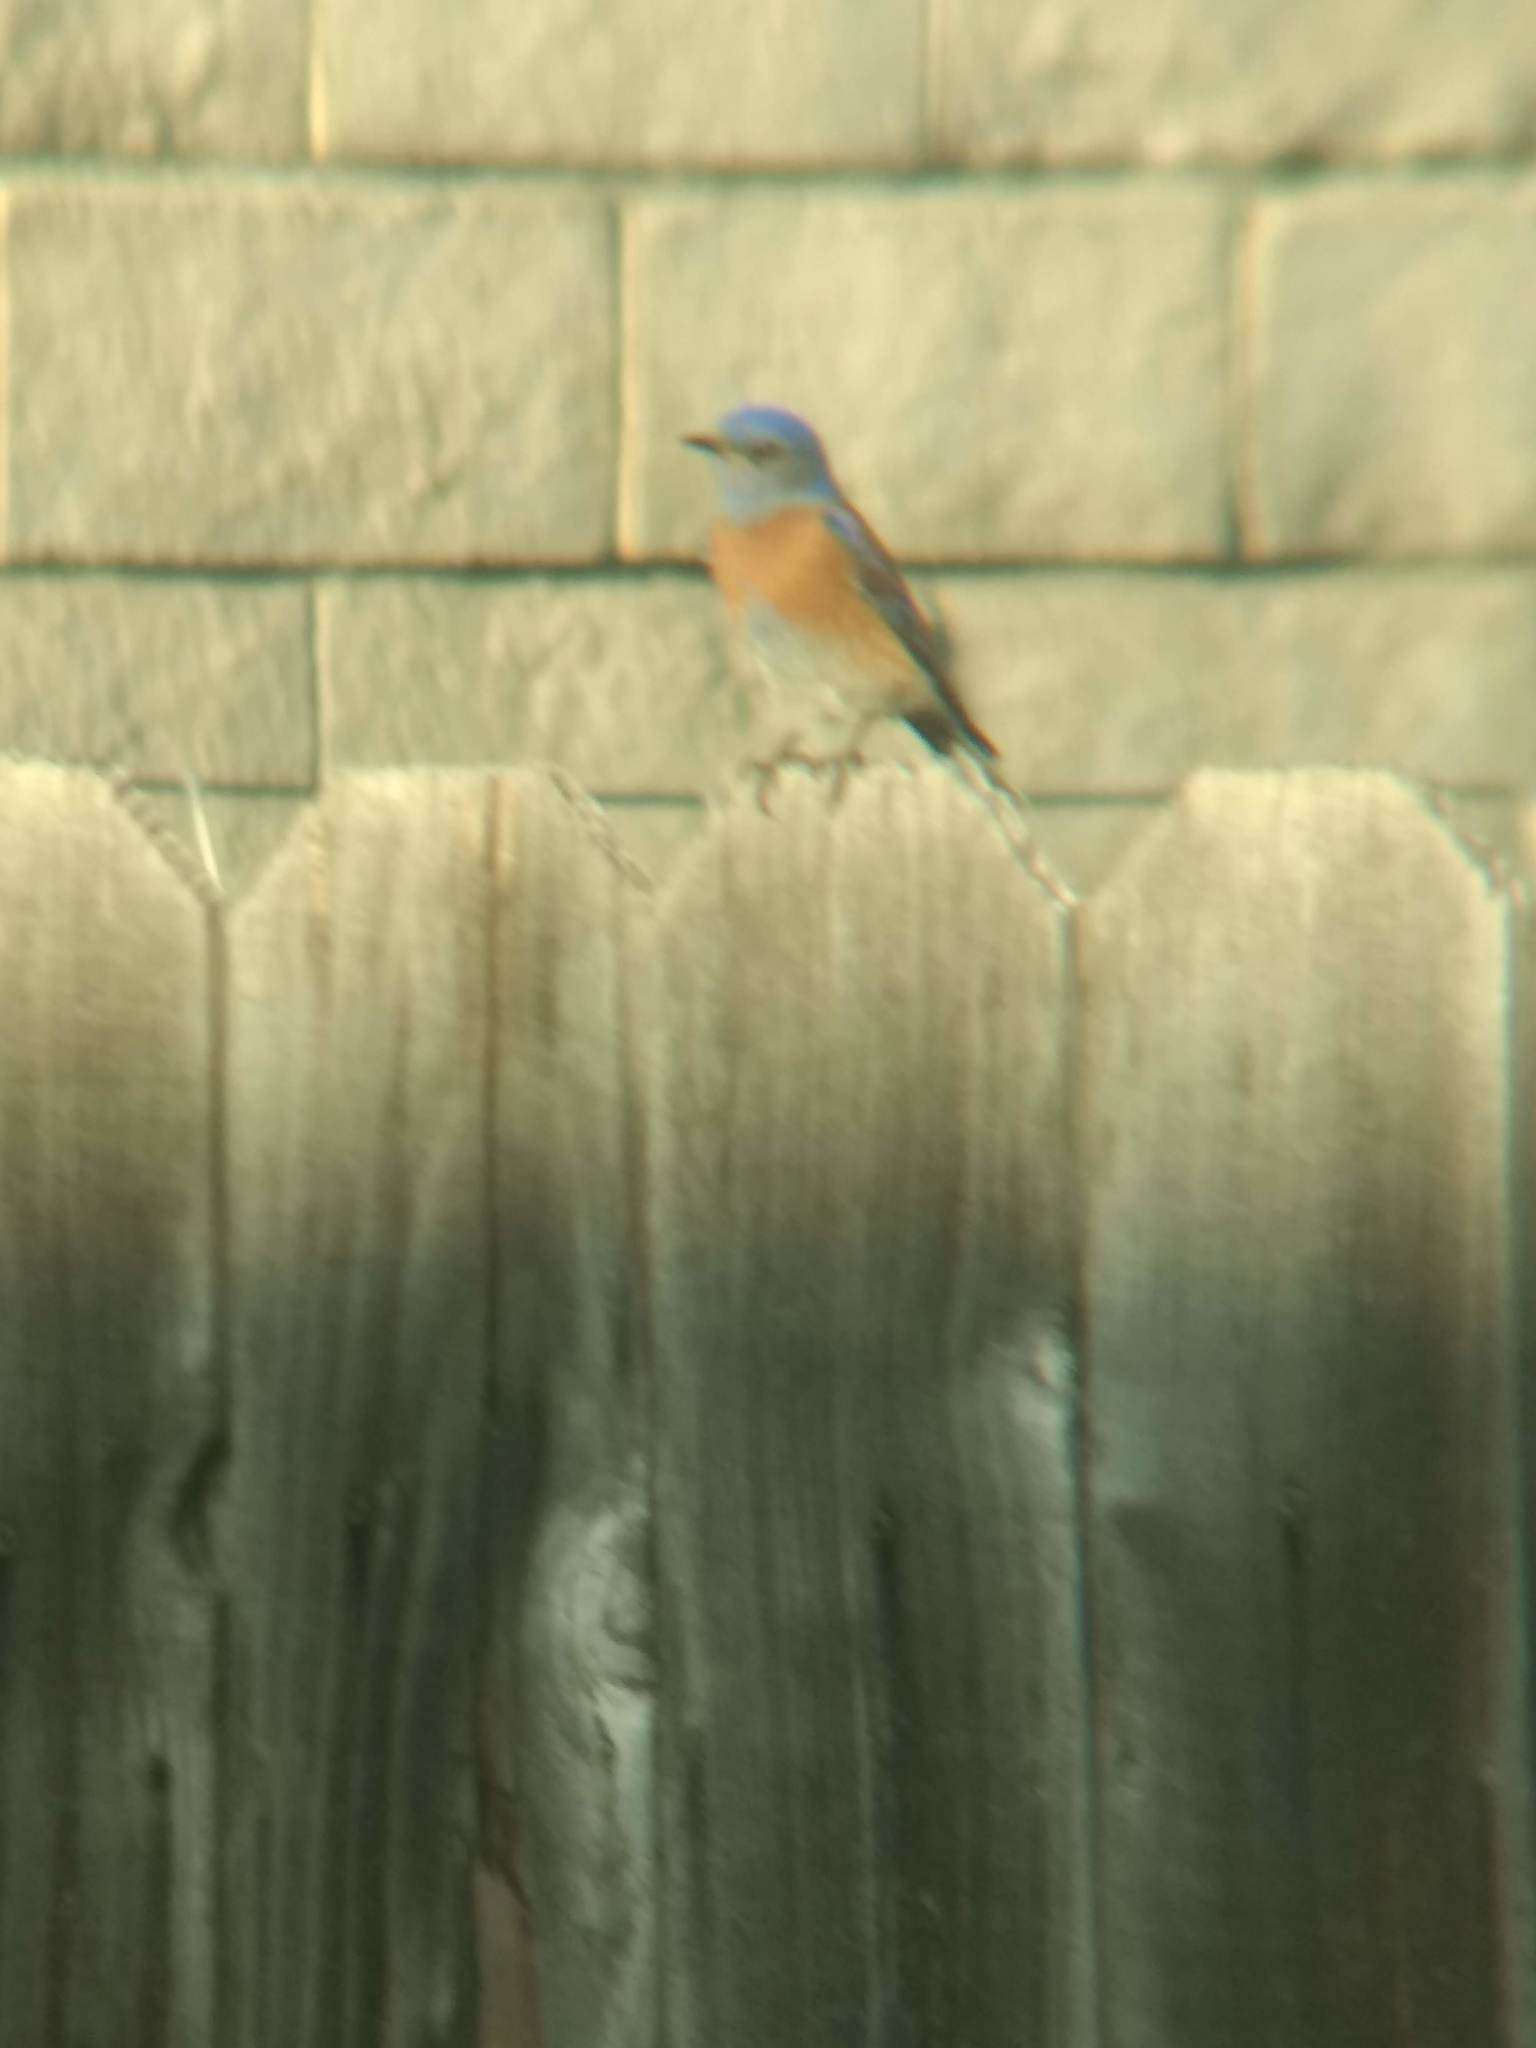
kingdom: Animalia
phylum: Chordata
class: Aves
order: Passeriformes
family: Turdidae
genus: Sialia
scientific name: Sialia mexicana
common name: Western bluebird
